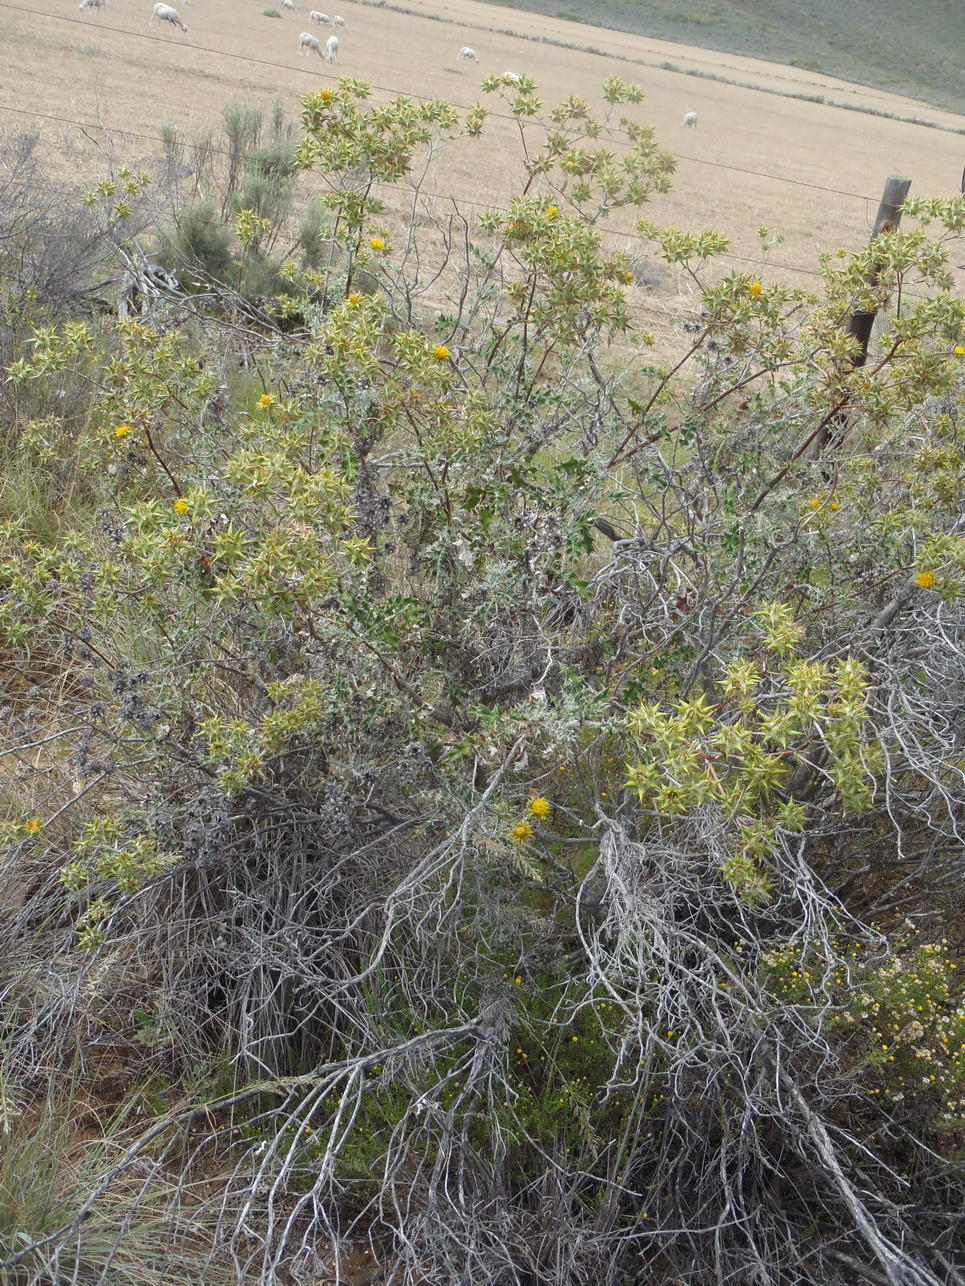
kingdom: Plantae
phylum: Tracheophyta
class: Magnoliopsida
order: Asterales
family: Asteraceae
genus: Berkheya
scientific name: Berkheya heterophylla
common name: Prickly gousblom
